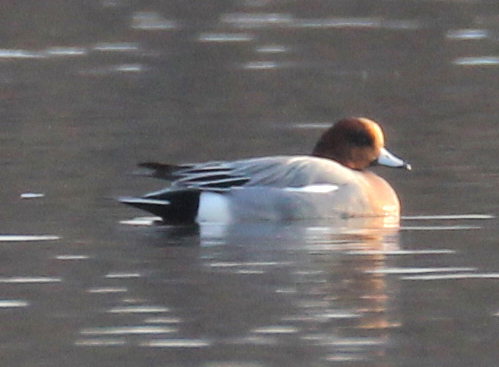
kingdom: Animalia
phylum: Chordata
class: Aves
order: Anseriformes
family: Anatidae
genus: Mareca
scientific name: Mareca penelope
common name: Eurasian wigeon
